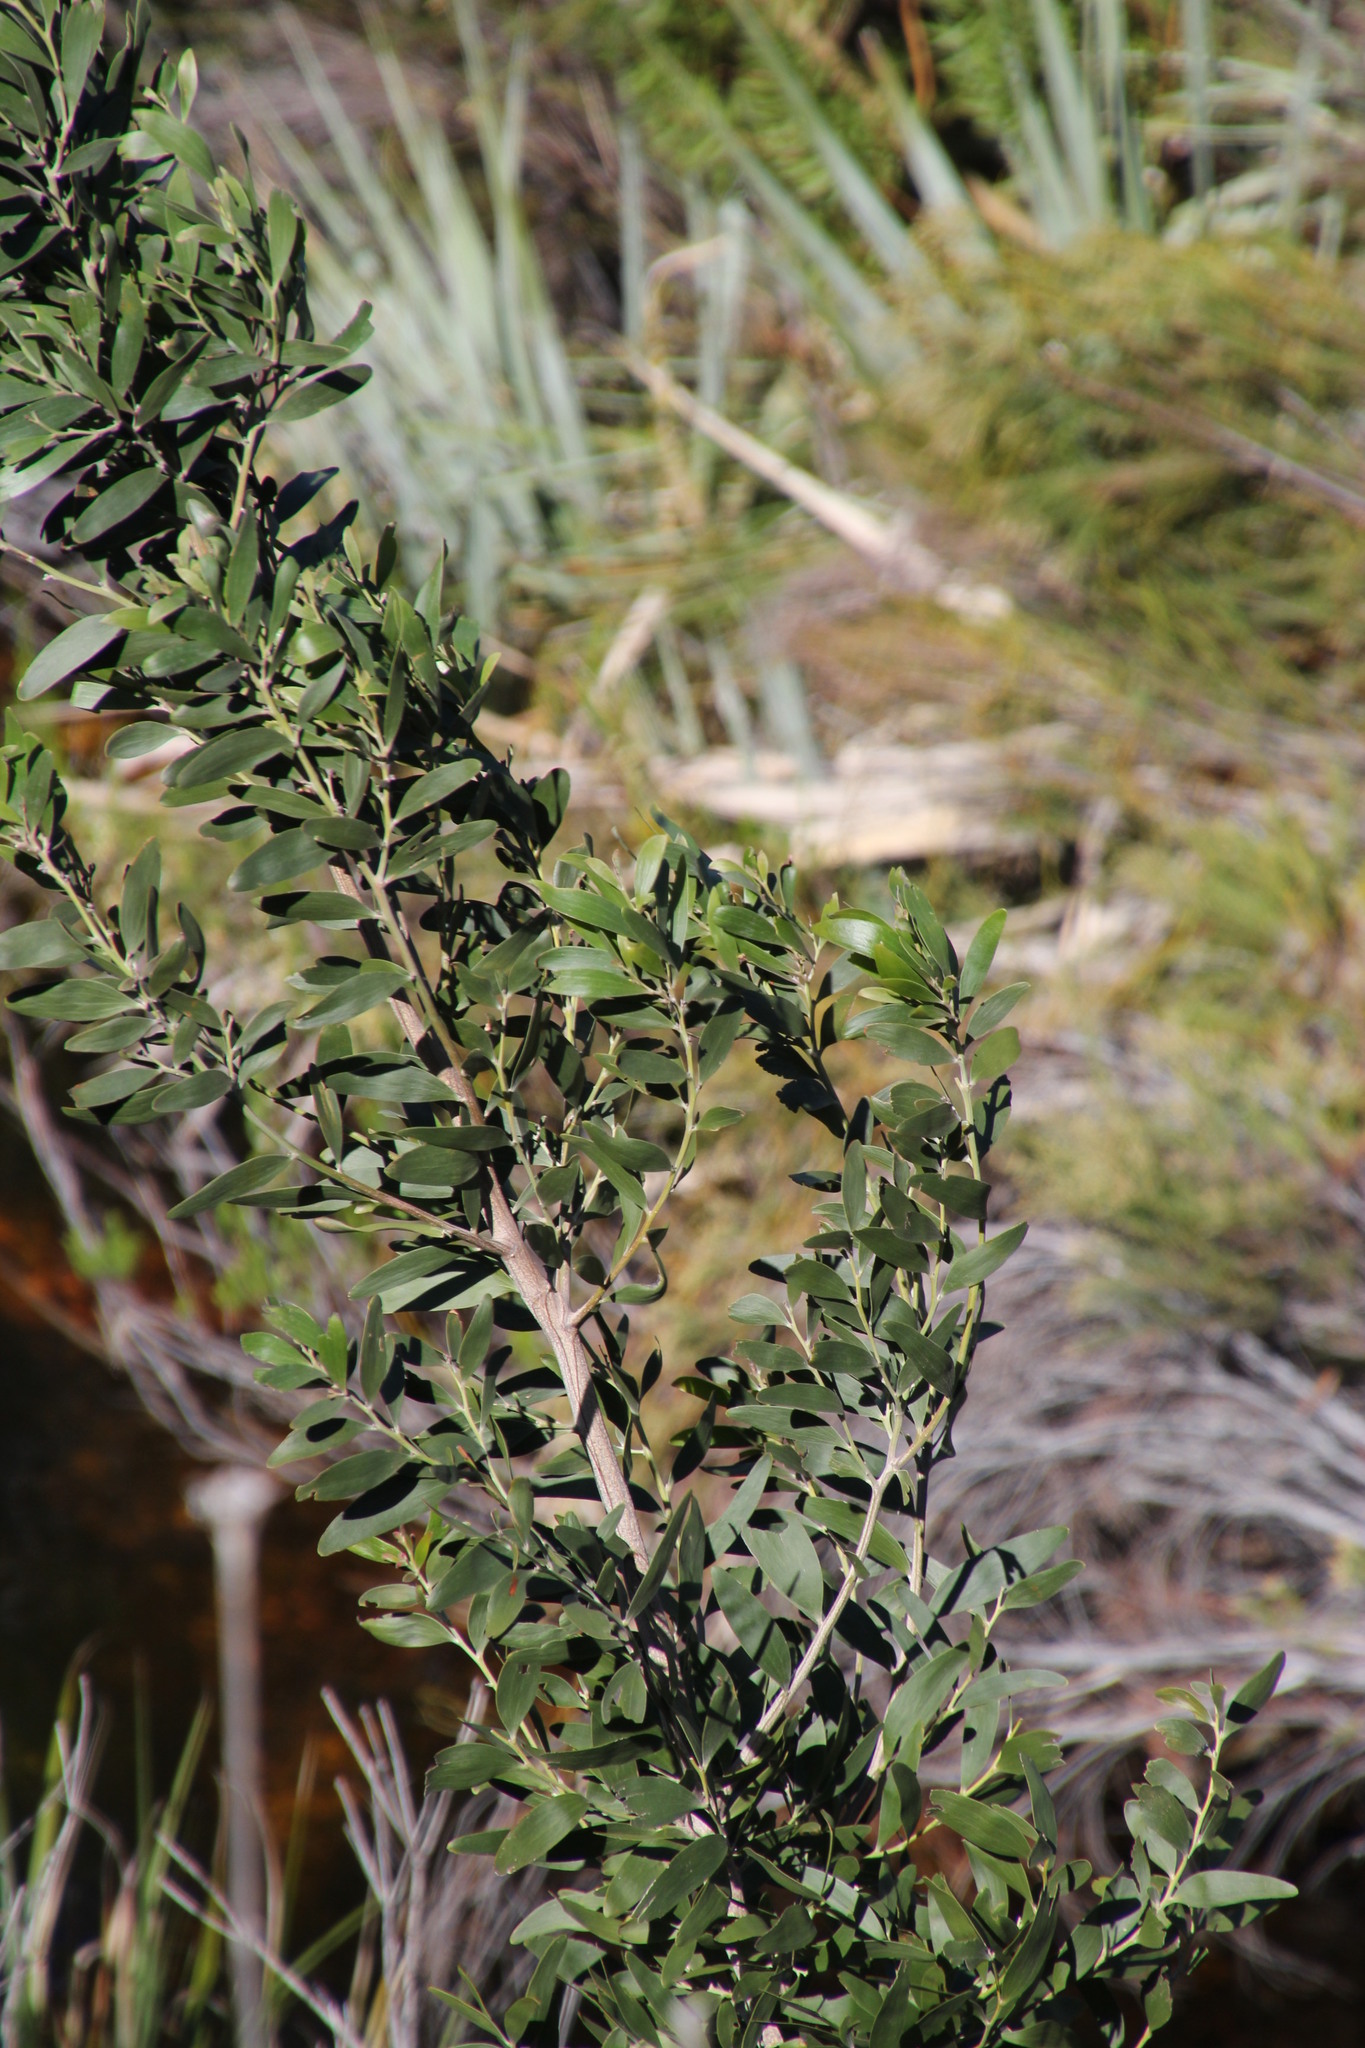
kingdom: Plantae
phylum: Tracheophyta
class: Magnoliopsida
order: Fabales
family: Fabaceae
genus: Acacia
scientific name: Acacia melanoxylon
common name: Blackwood
